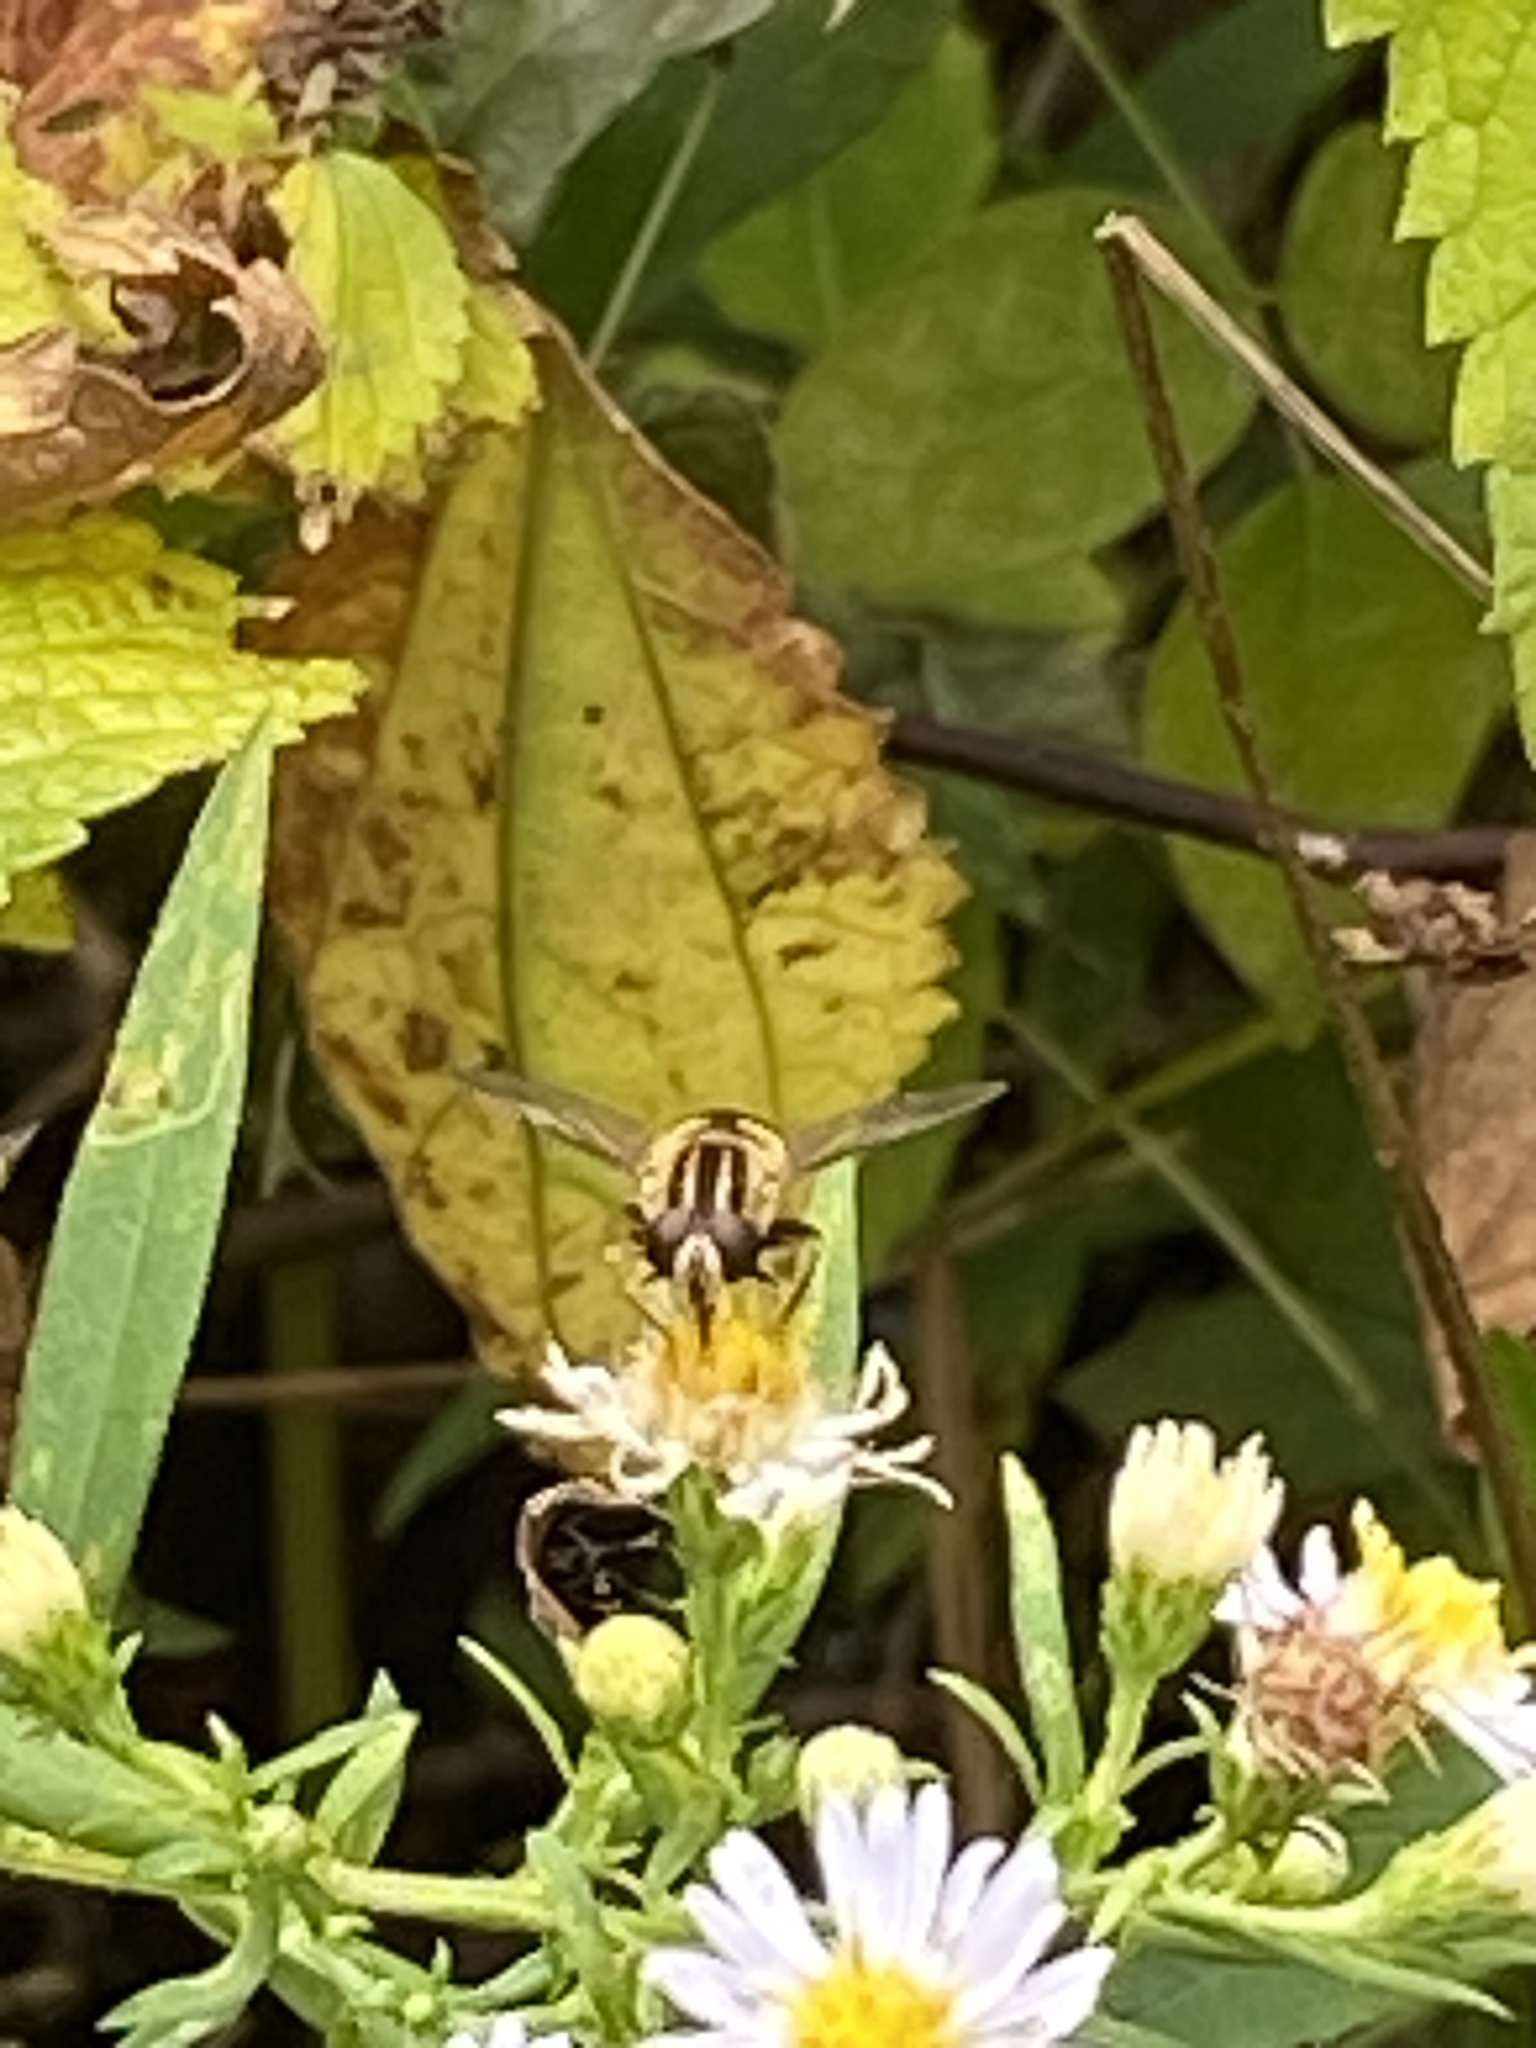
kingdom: Animalia
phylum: Arthropoda
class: Insecta
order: Diptera
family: Syrphidae
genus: Helophilus
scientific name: Helophilus fasciatus
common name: Narrow-headed marsh fly
